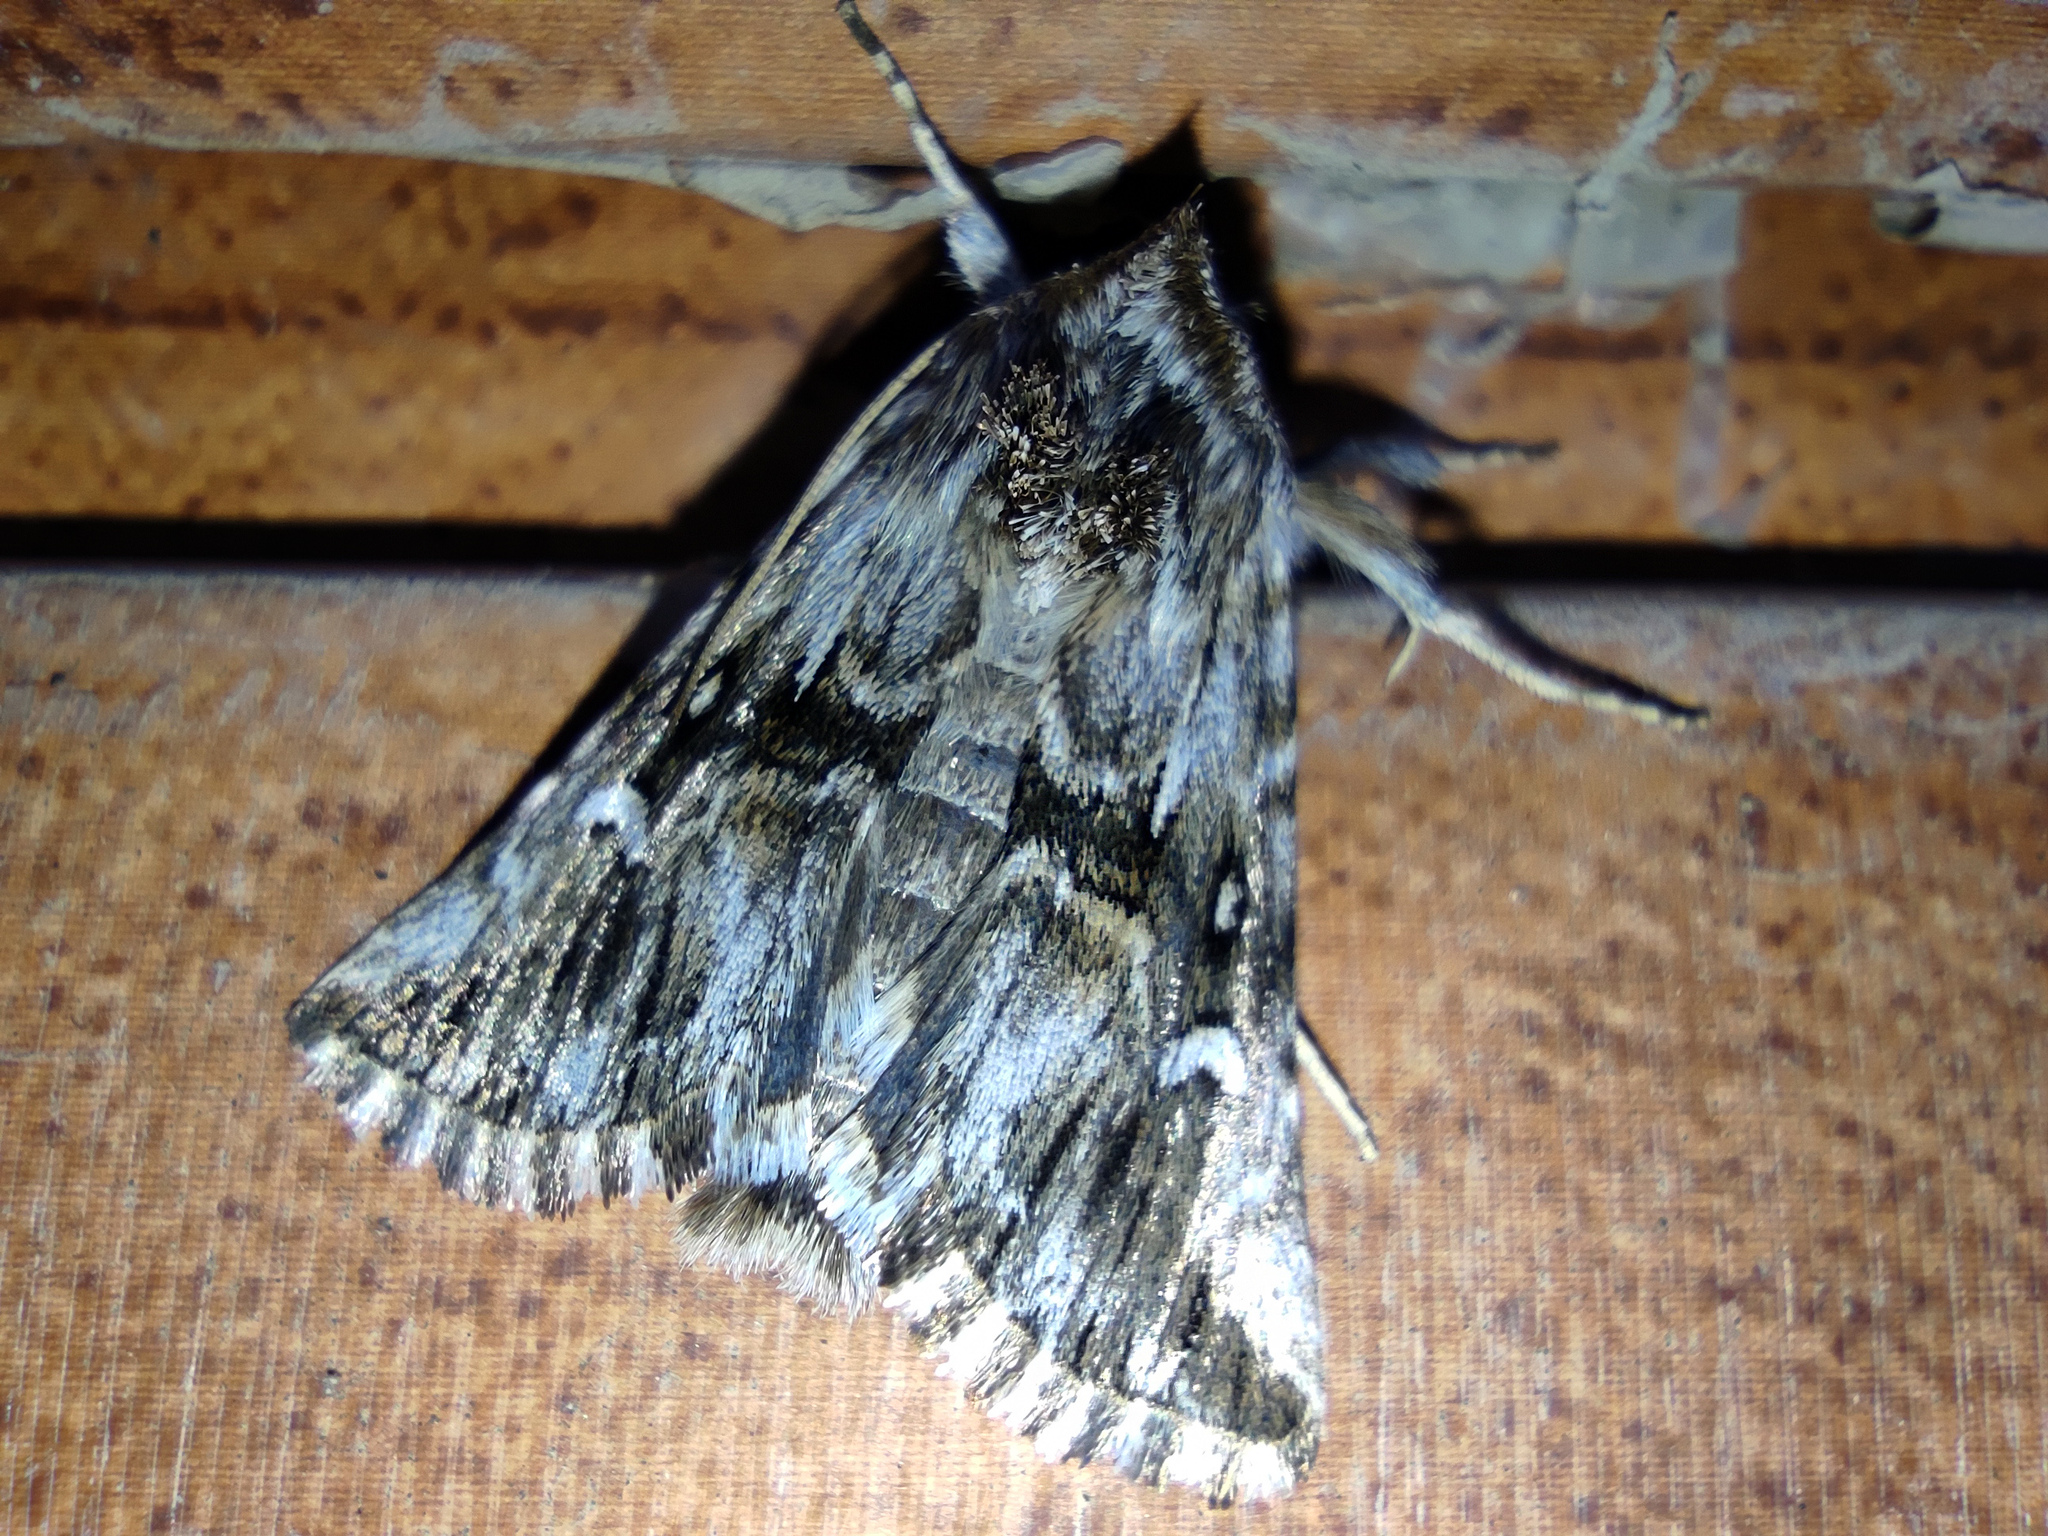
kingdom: Animalia
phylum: Arthropoda
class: Insecta
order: Lepidoptera
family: Noctuidae
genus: Calophasia
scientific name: Calophasia lunula
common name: Toadflax brocade
